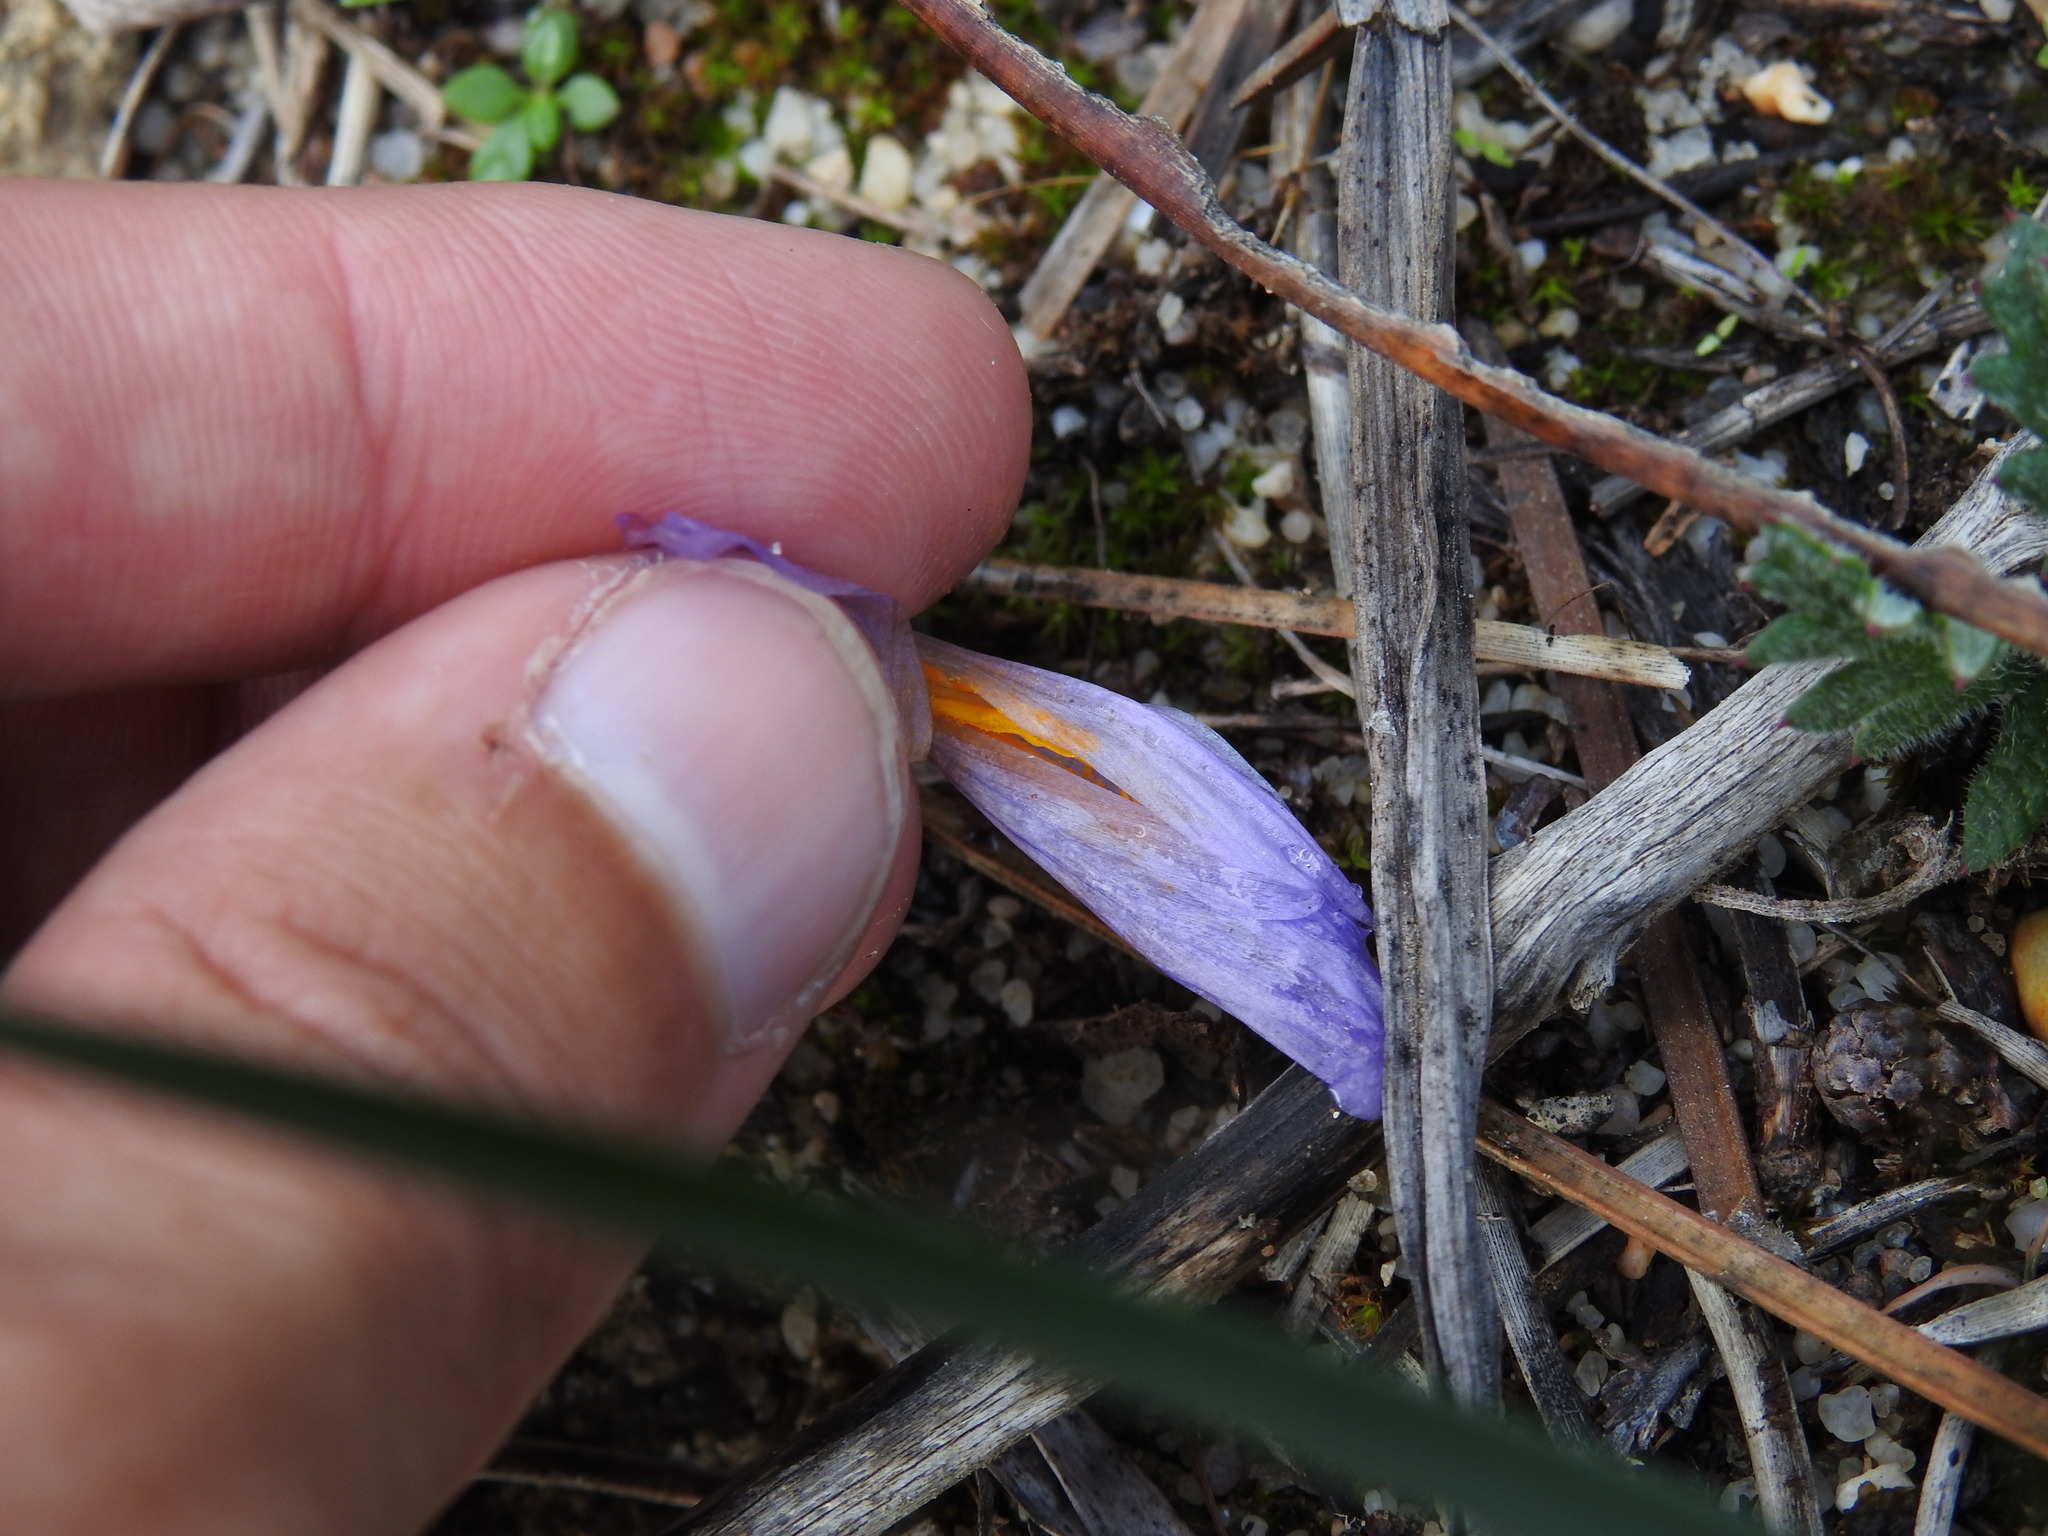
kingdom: Plantae
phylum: Tracheophyta
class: Liliopsida
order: Asparagales
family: Iridaceae
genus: Crocus
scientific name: Crocus serotinus
